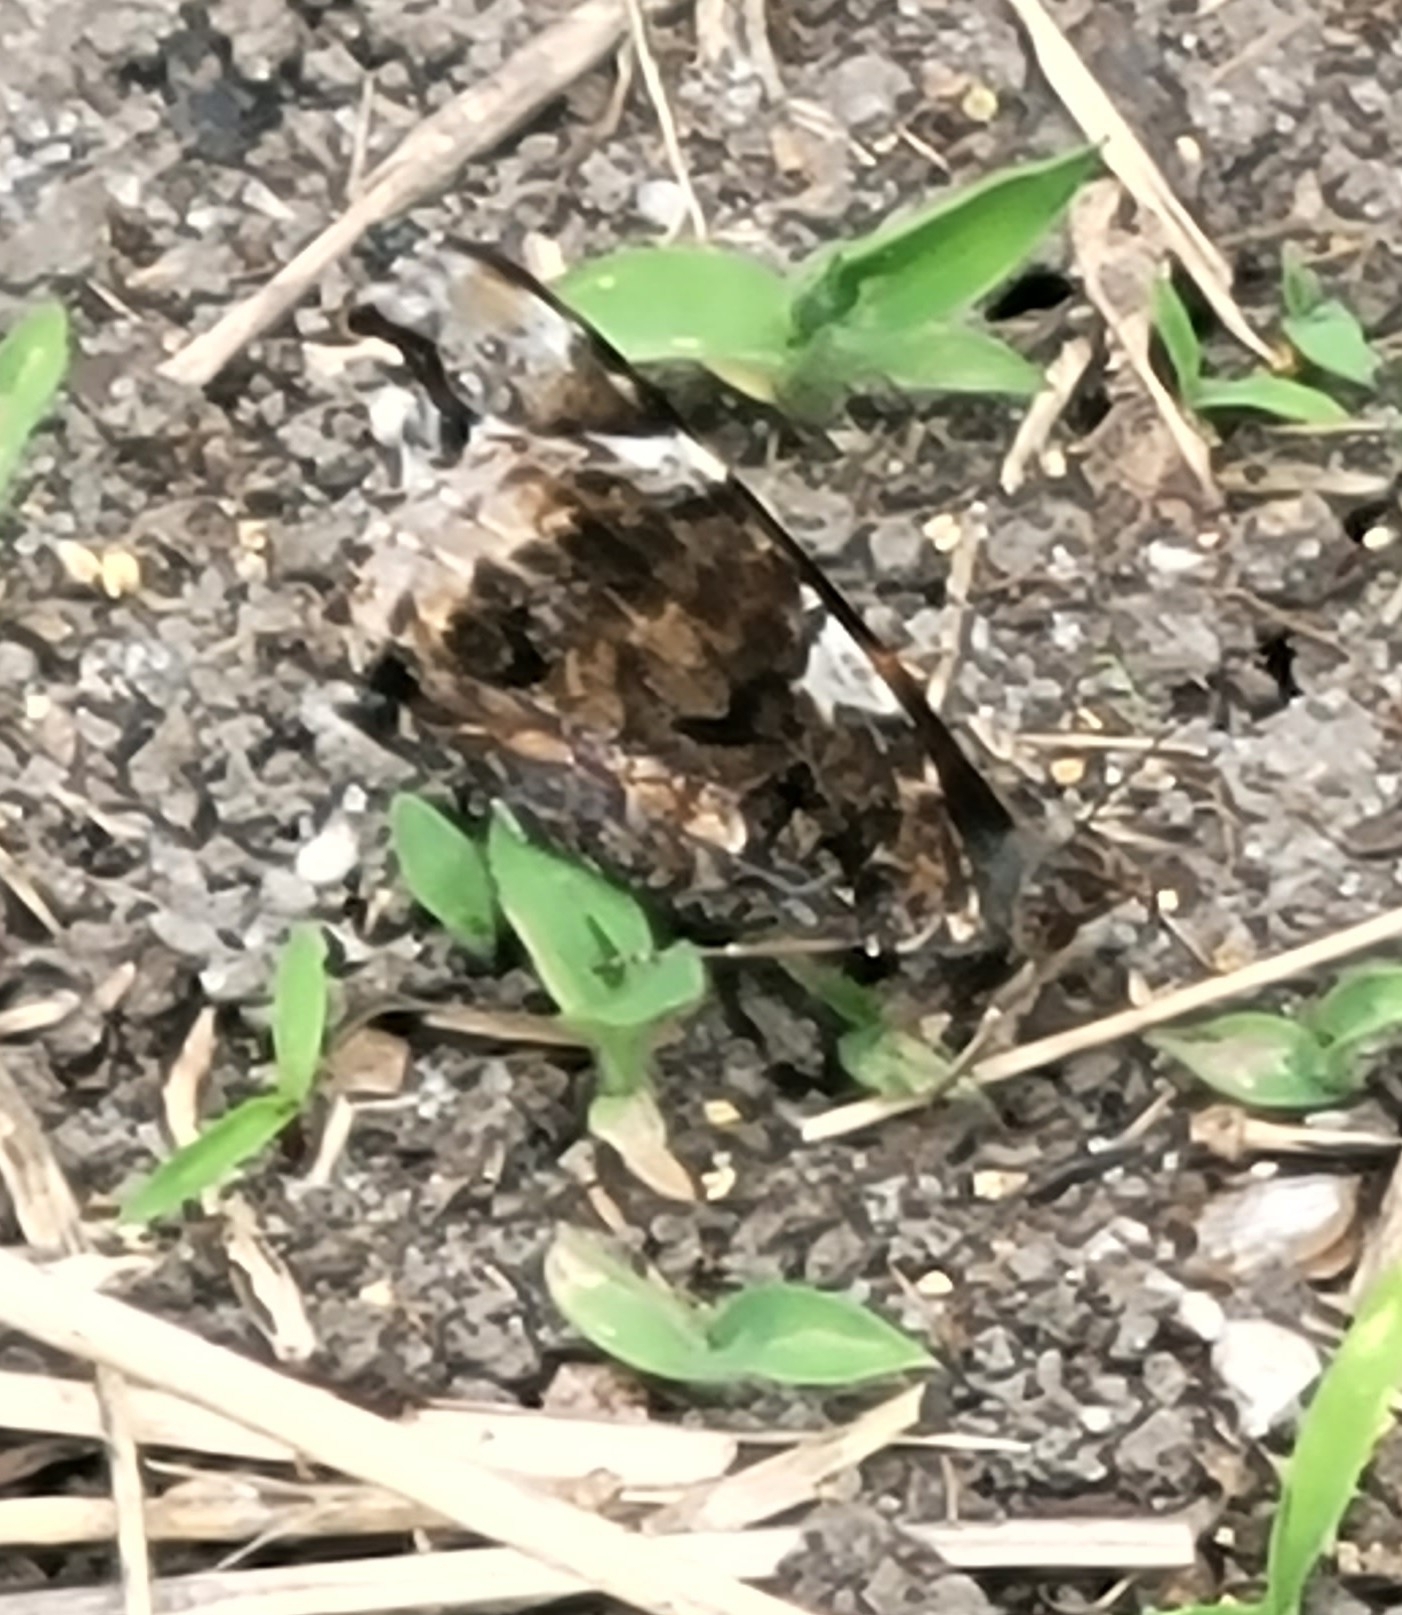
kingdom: Animalia
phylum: Arthropoda
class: Insecta
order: Lepidoptera
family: Nymphalidae
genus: Vanessa
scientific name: Vanessa atalanta
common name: Red admiral
